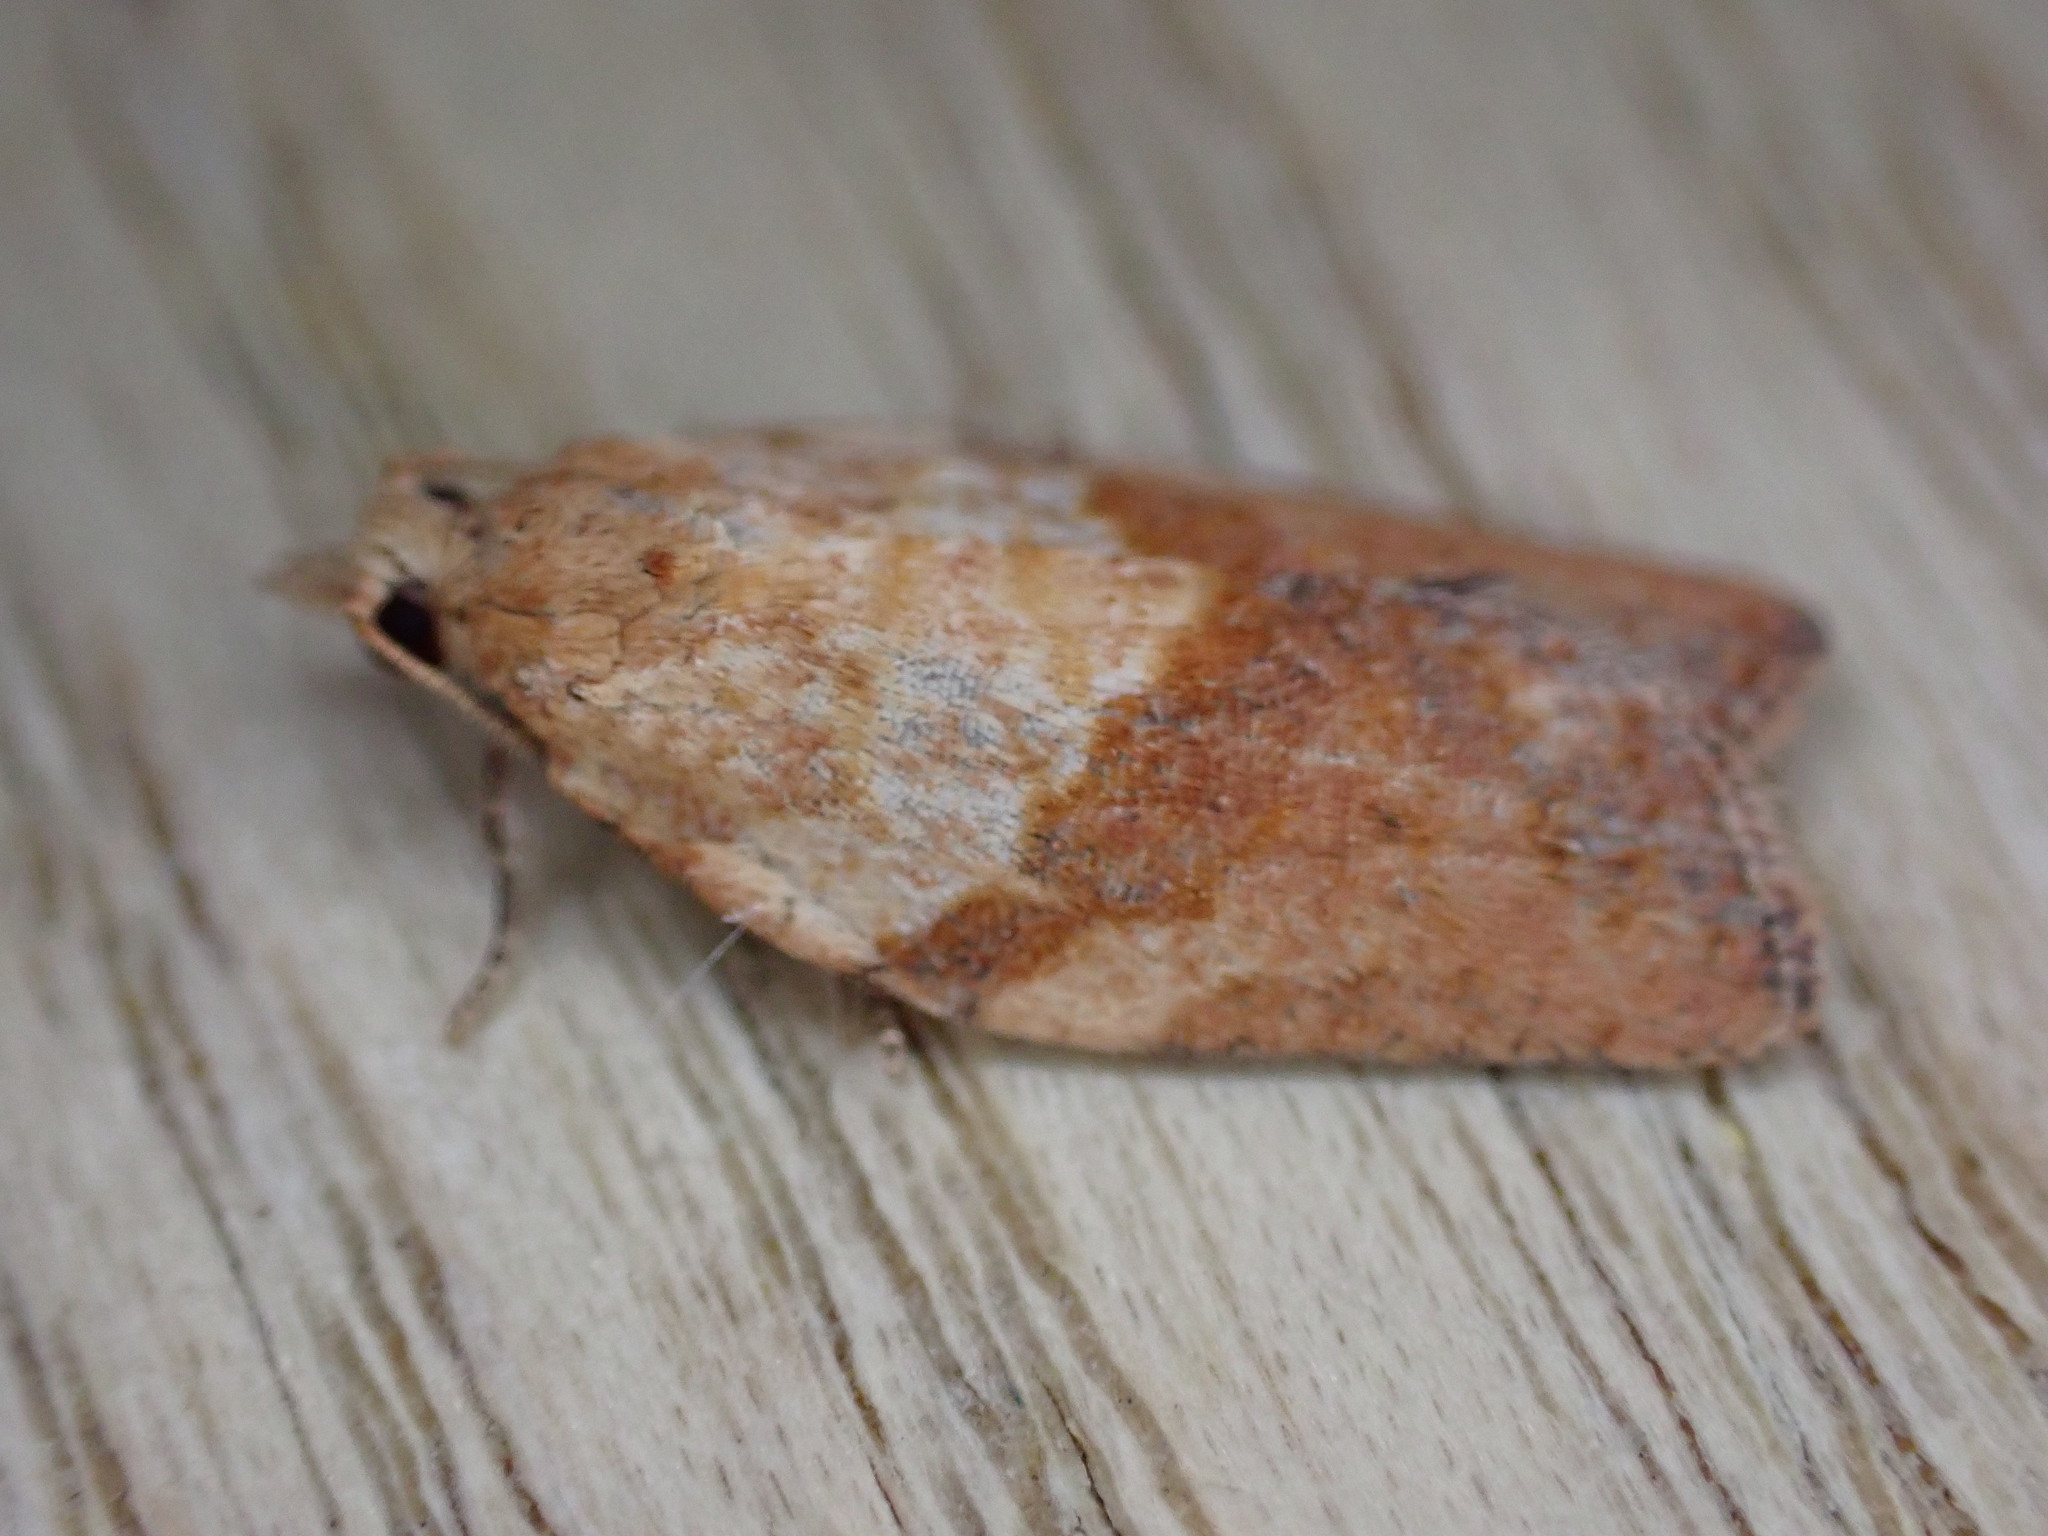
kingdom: Animalia
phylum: Arthropoda
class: Insecta
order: Lepidoptera
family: Tortricidae
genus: Epiphyas
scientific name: Epiphyas postvittana
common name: Light brown apple moth
